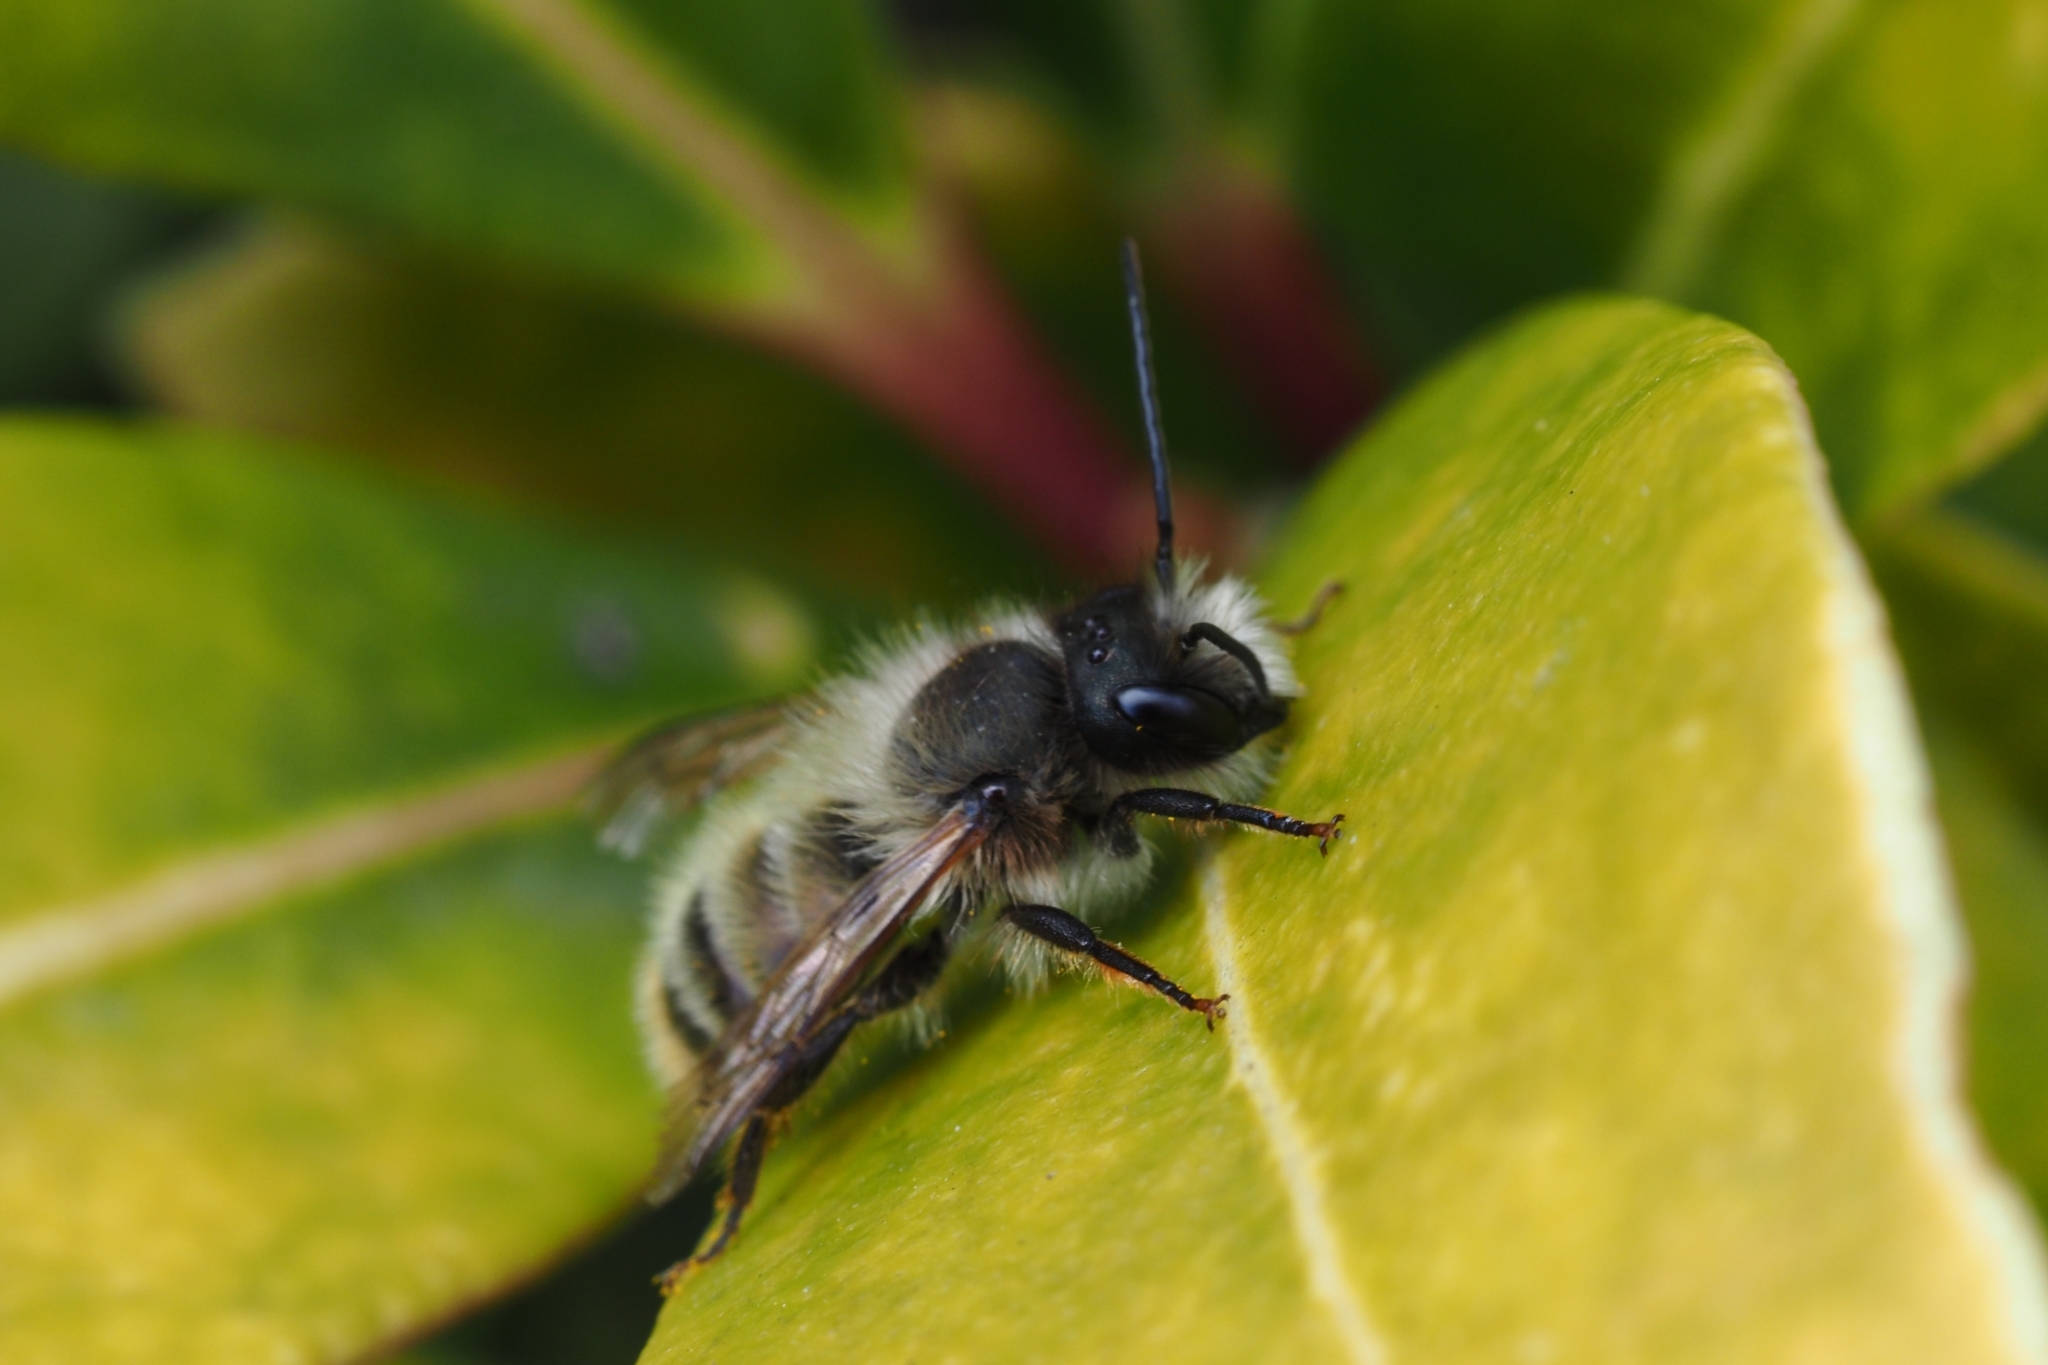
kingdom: Animalia
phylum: Arthropoda
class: Insecta
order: Hymenoptera
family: Megachilidae
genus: Osmia
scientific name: Osmia bicornis
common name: Red mason bee
